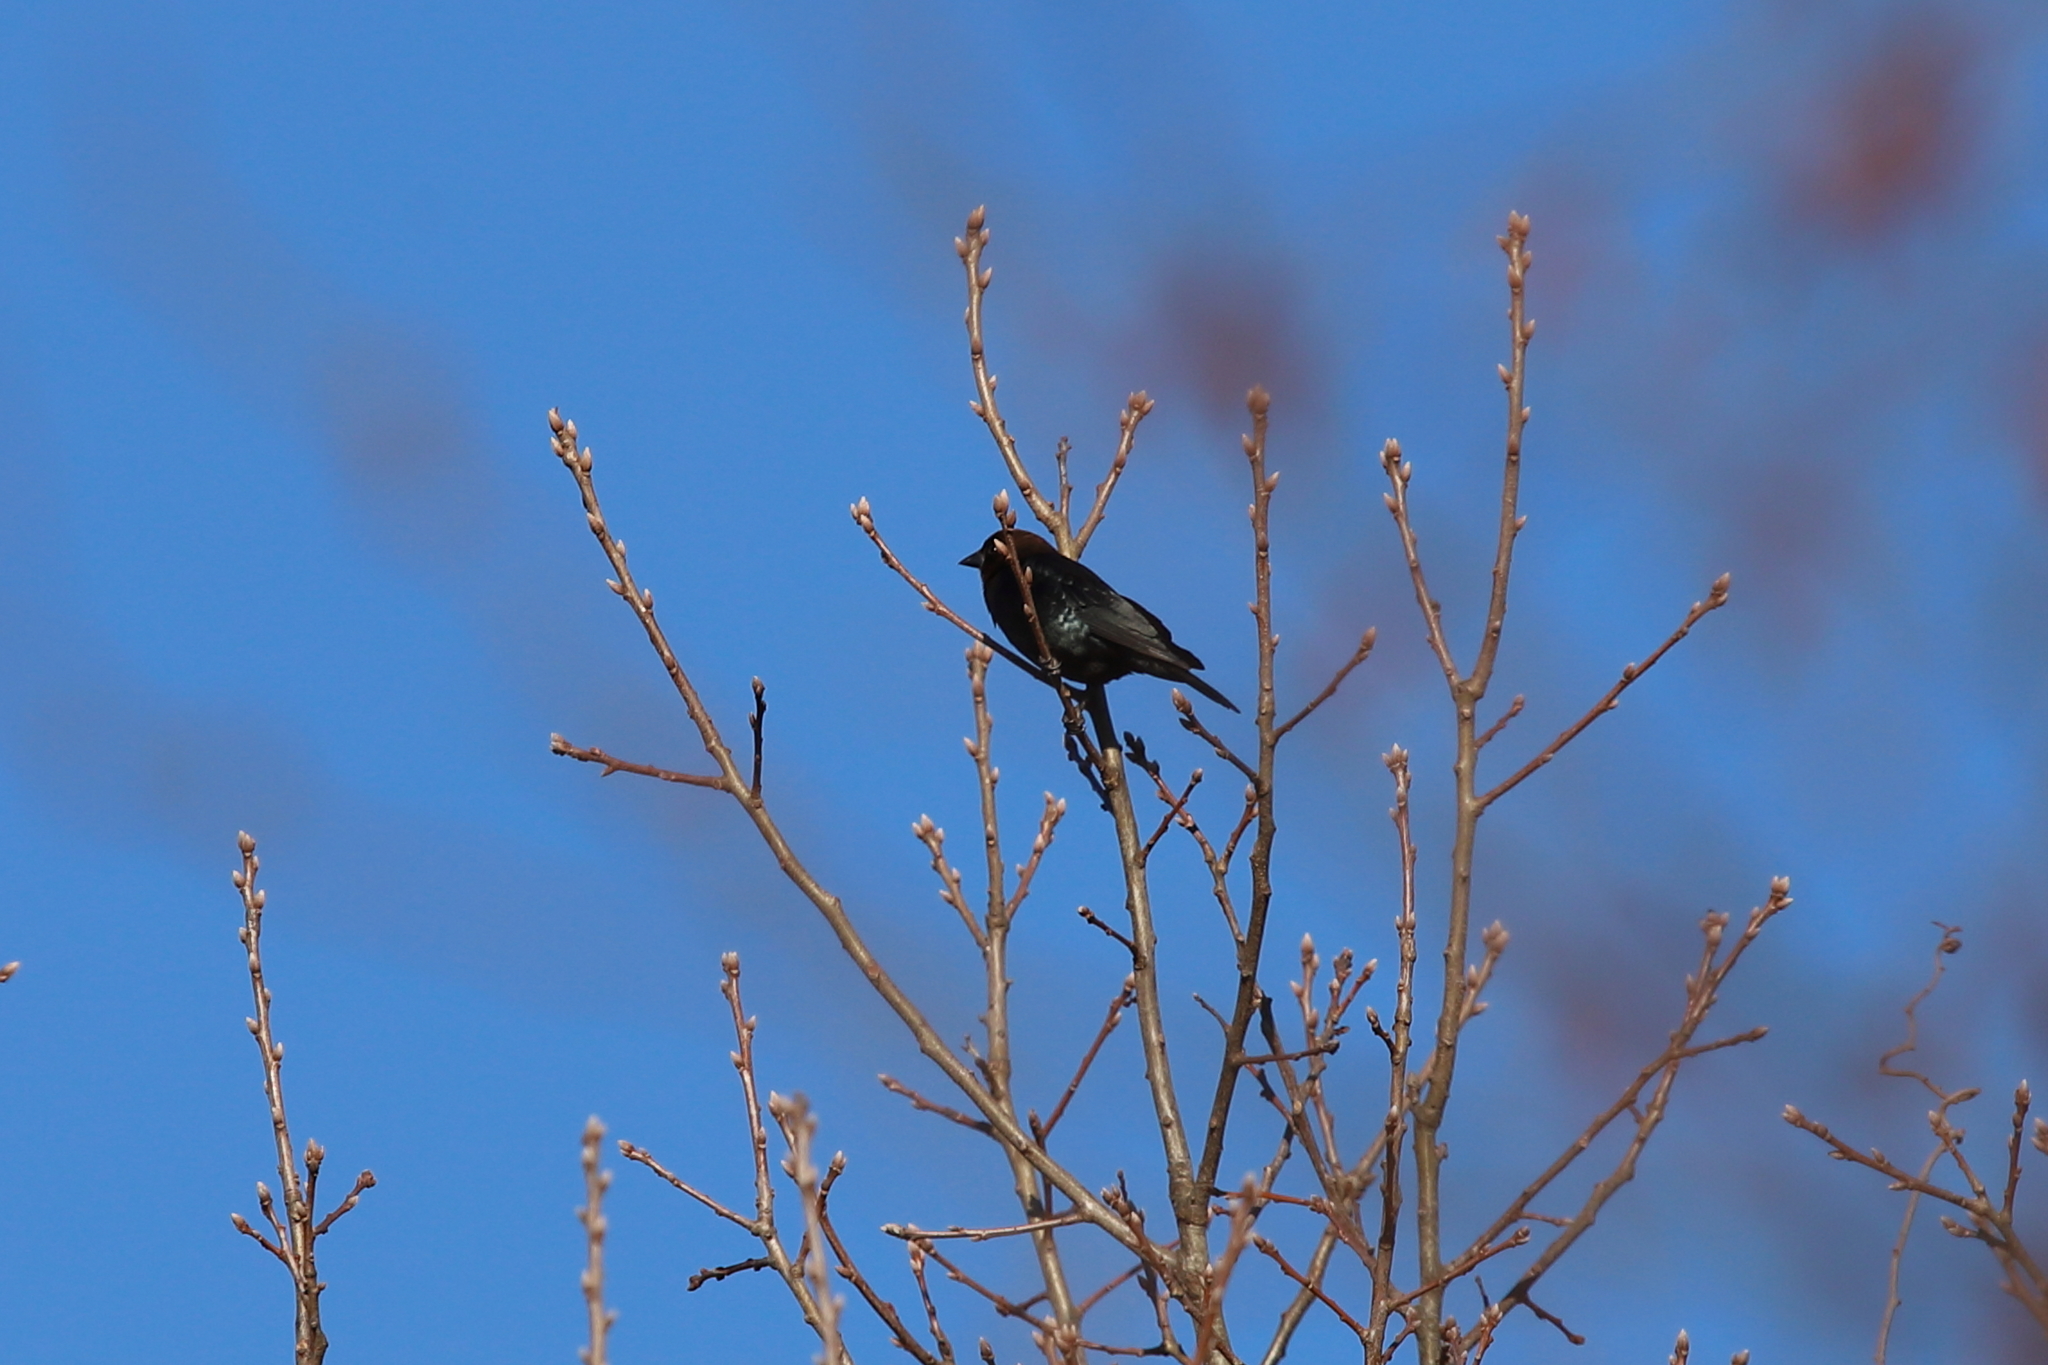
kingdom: Animalia
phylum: Chordata
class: Aves
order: Passeriformes
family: Icteridae
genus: Molothrus
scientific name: Molothrus ater
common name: Brown-headed cowbird
